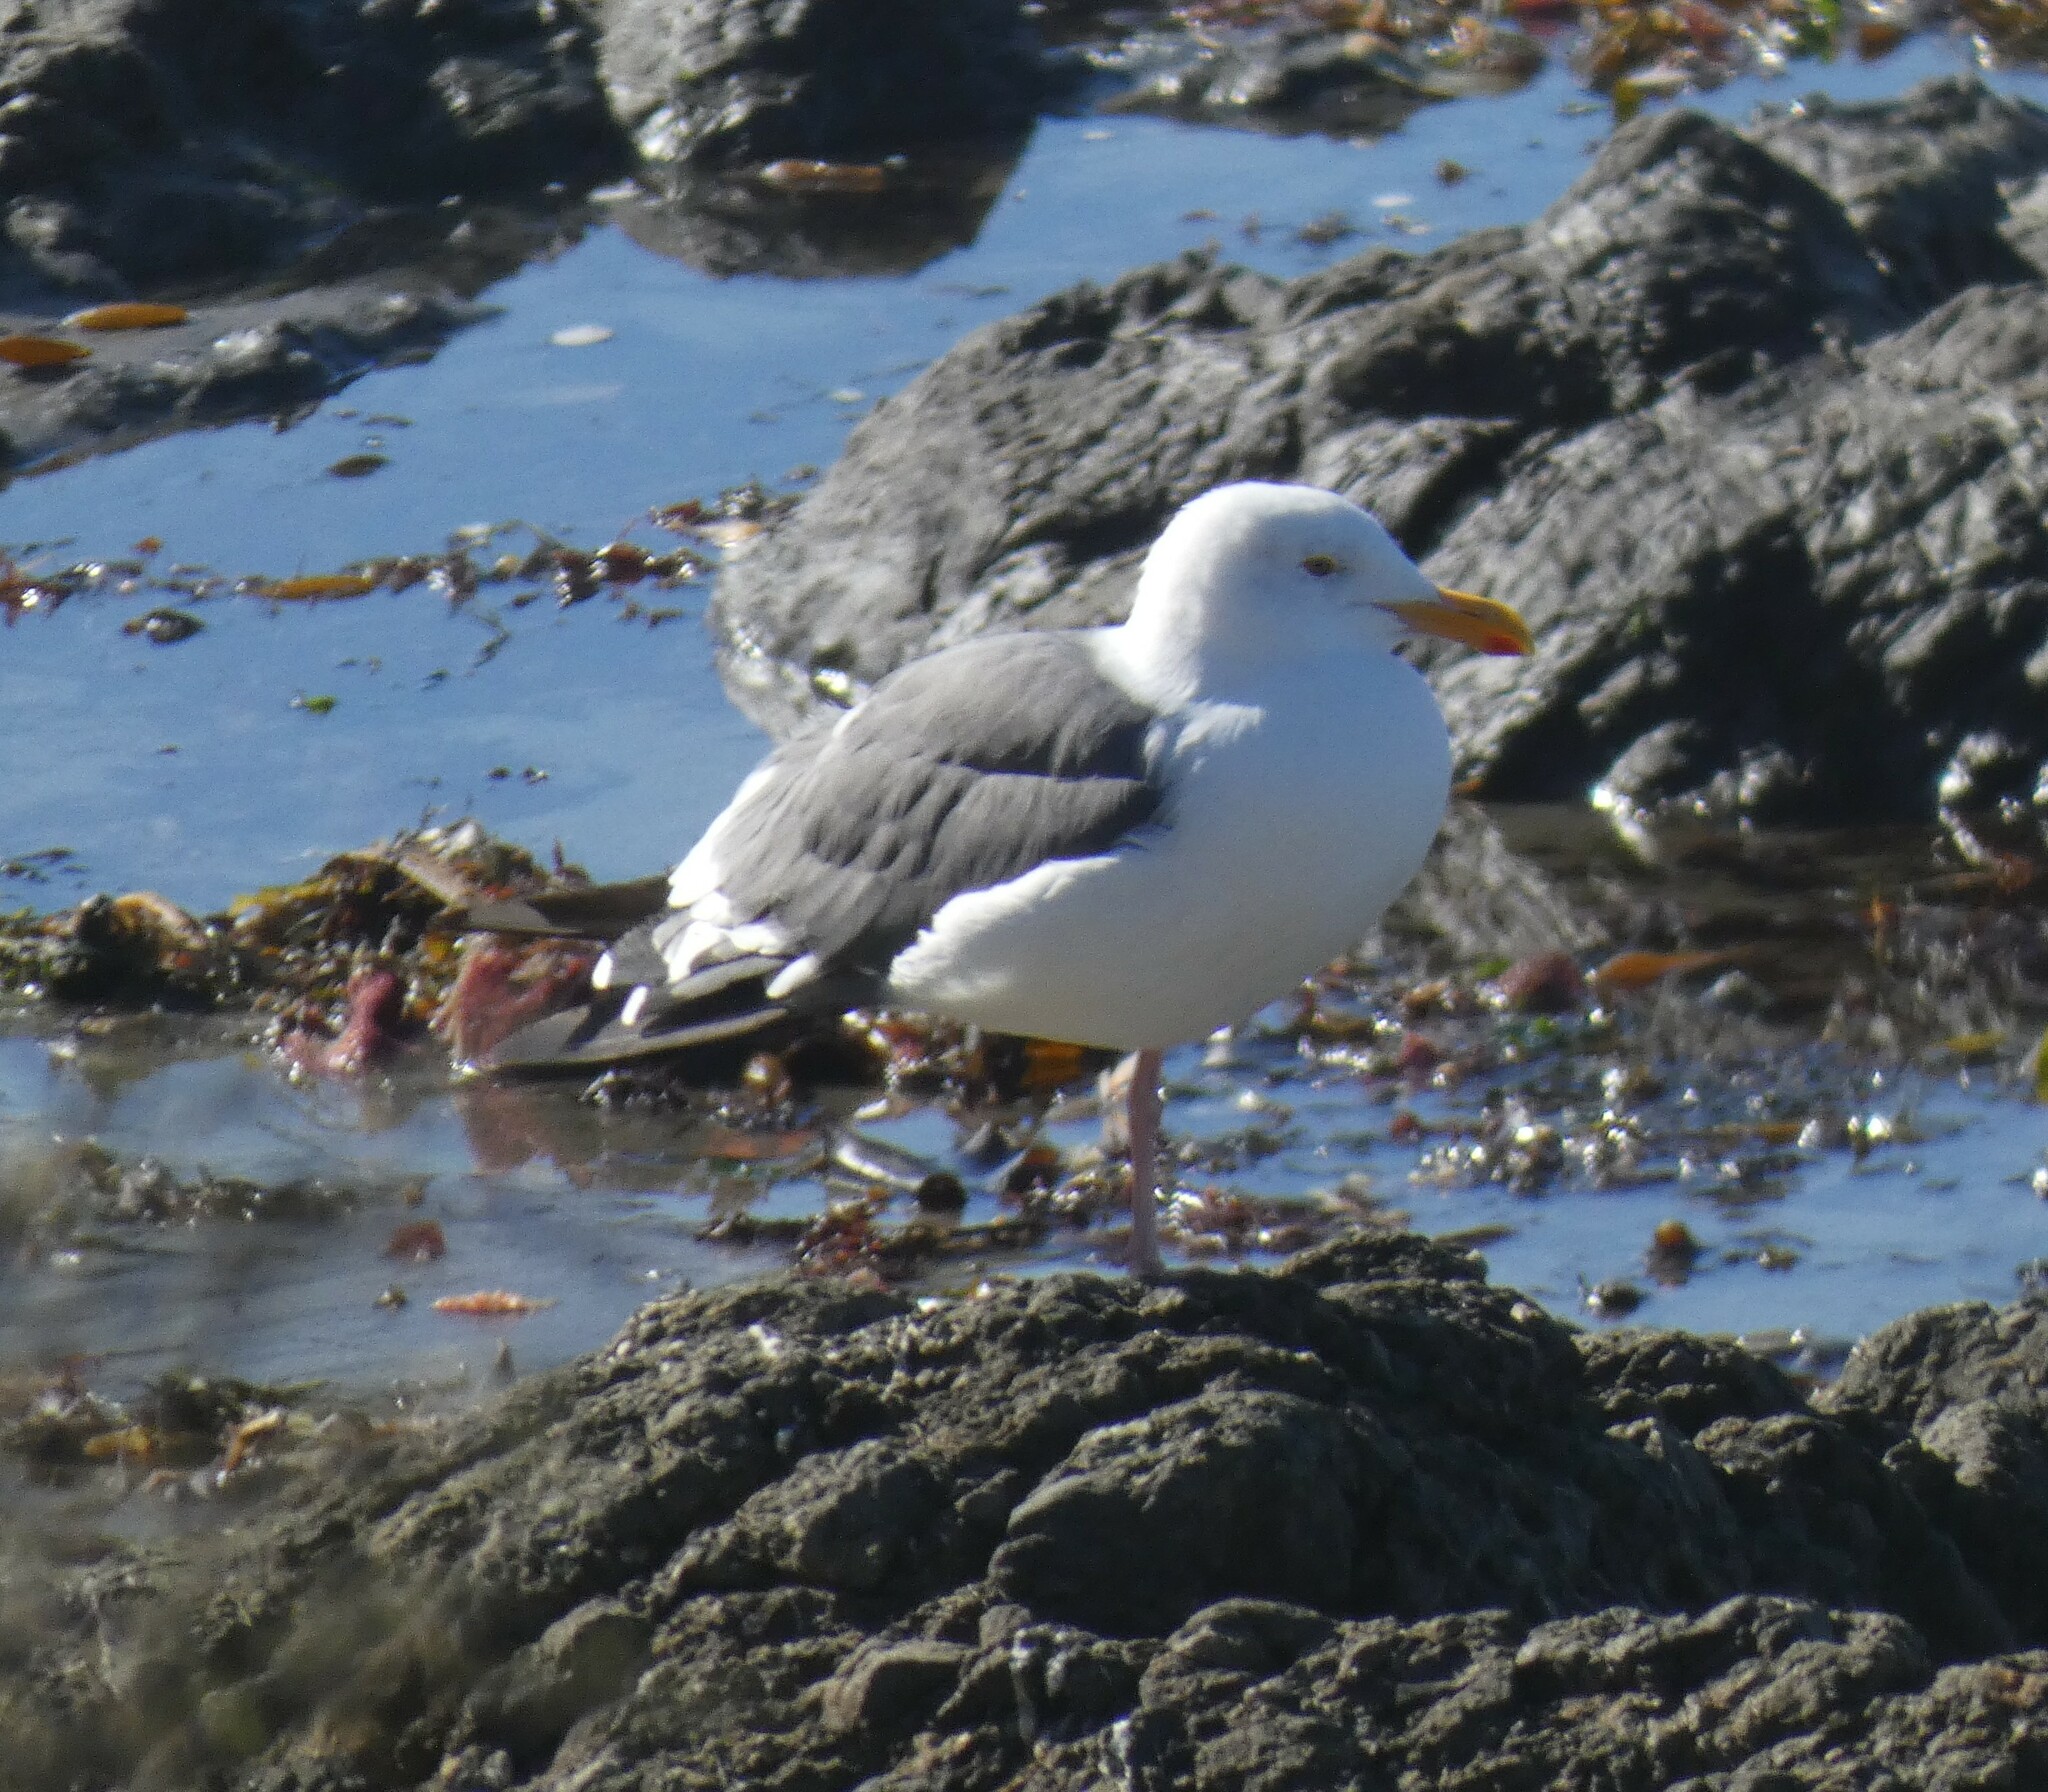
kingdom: Animalia
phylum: Chordata
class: Aves
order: Charadriiformes
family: Laridae
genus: Larus
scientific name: Larus occidentalis
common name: Western gull
